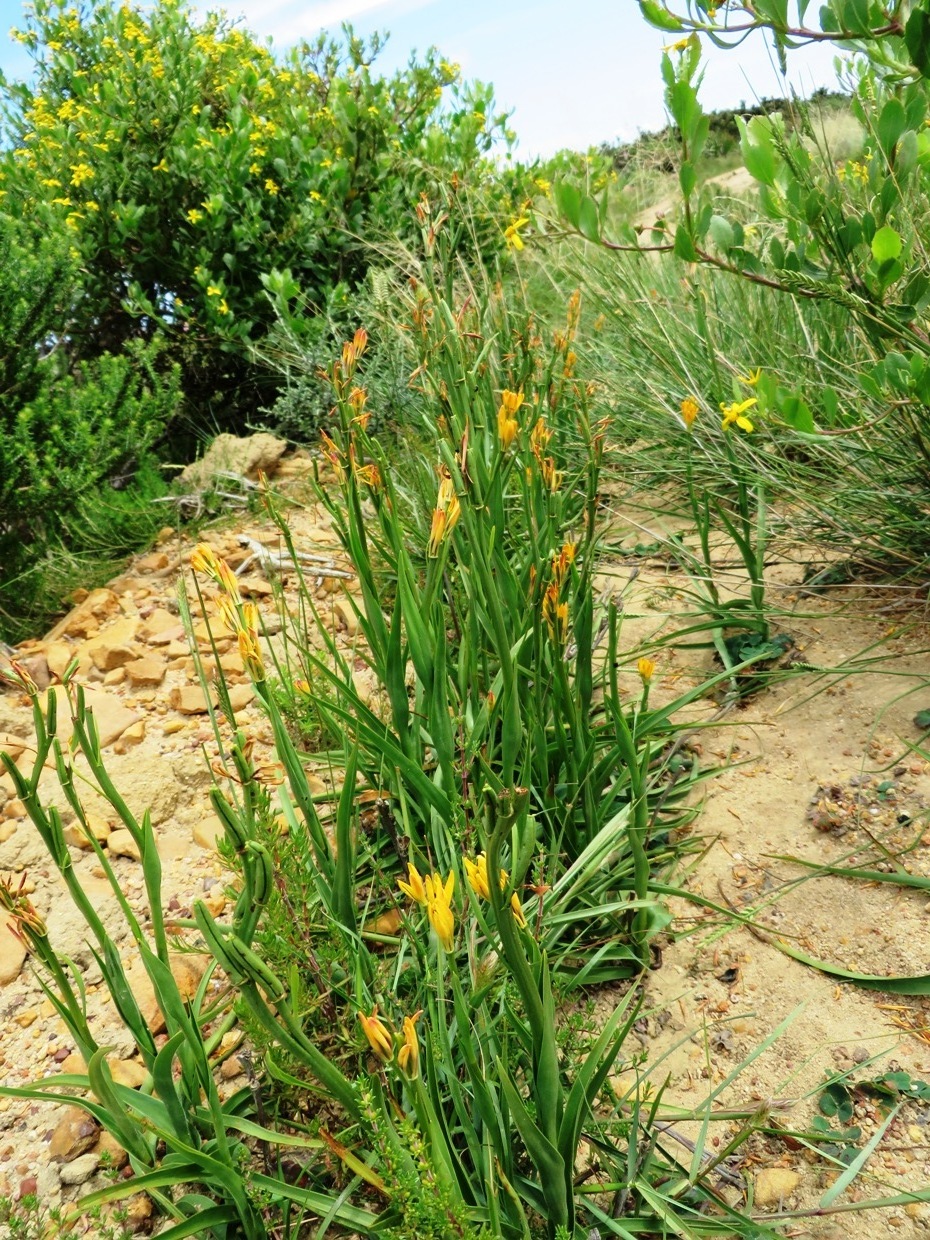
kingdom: Plantae
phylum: Tracheophyta
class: Liliopsida
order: Liliales
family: Colchicaceae
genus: Baeometra
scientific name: Baeometra uniflora
